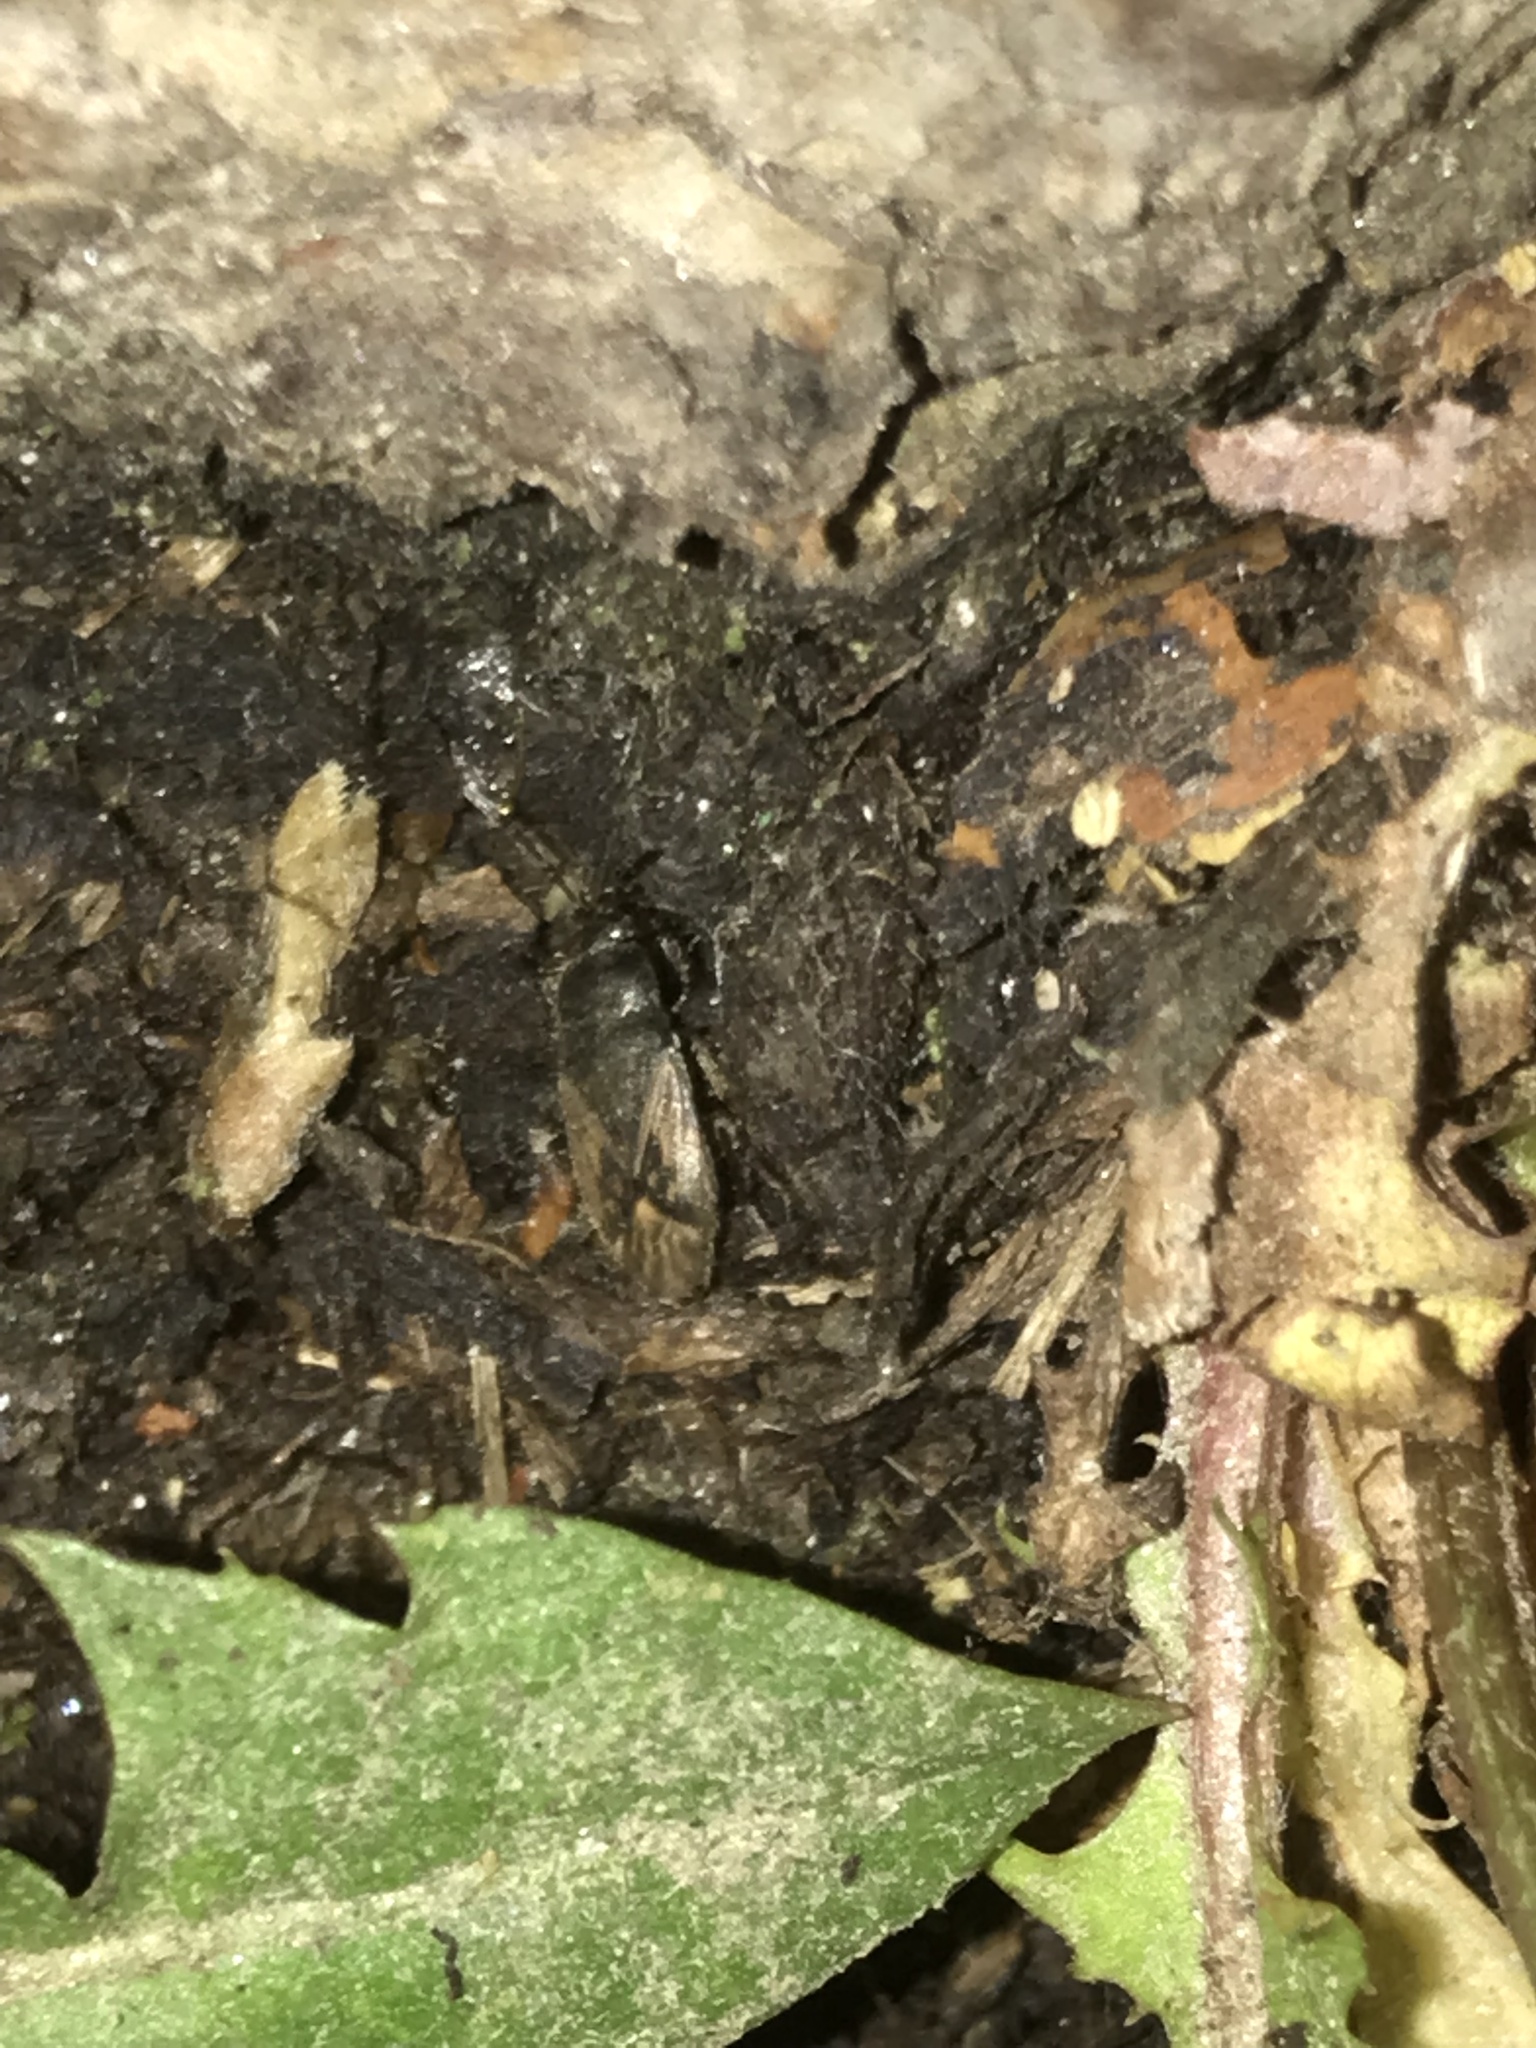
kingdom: Animalia
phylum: Arthropoda
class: Insecta
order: Hemiptera
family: Rhyparochromidae
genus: Megalonotus
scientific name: Megalonotus sabulicola
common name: Seed bug
